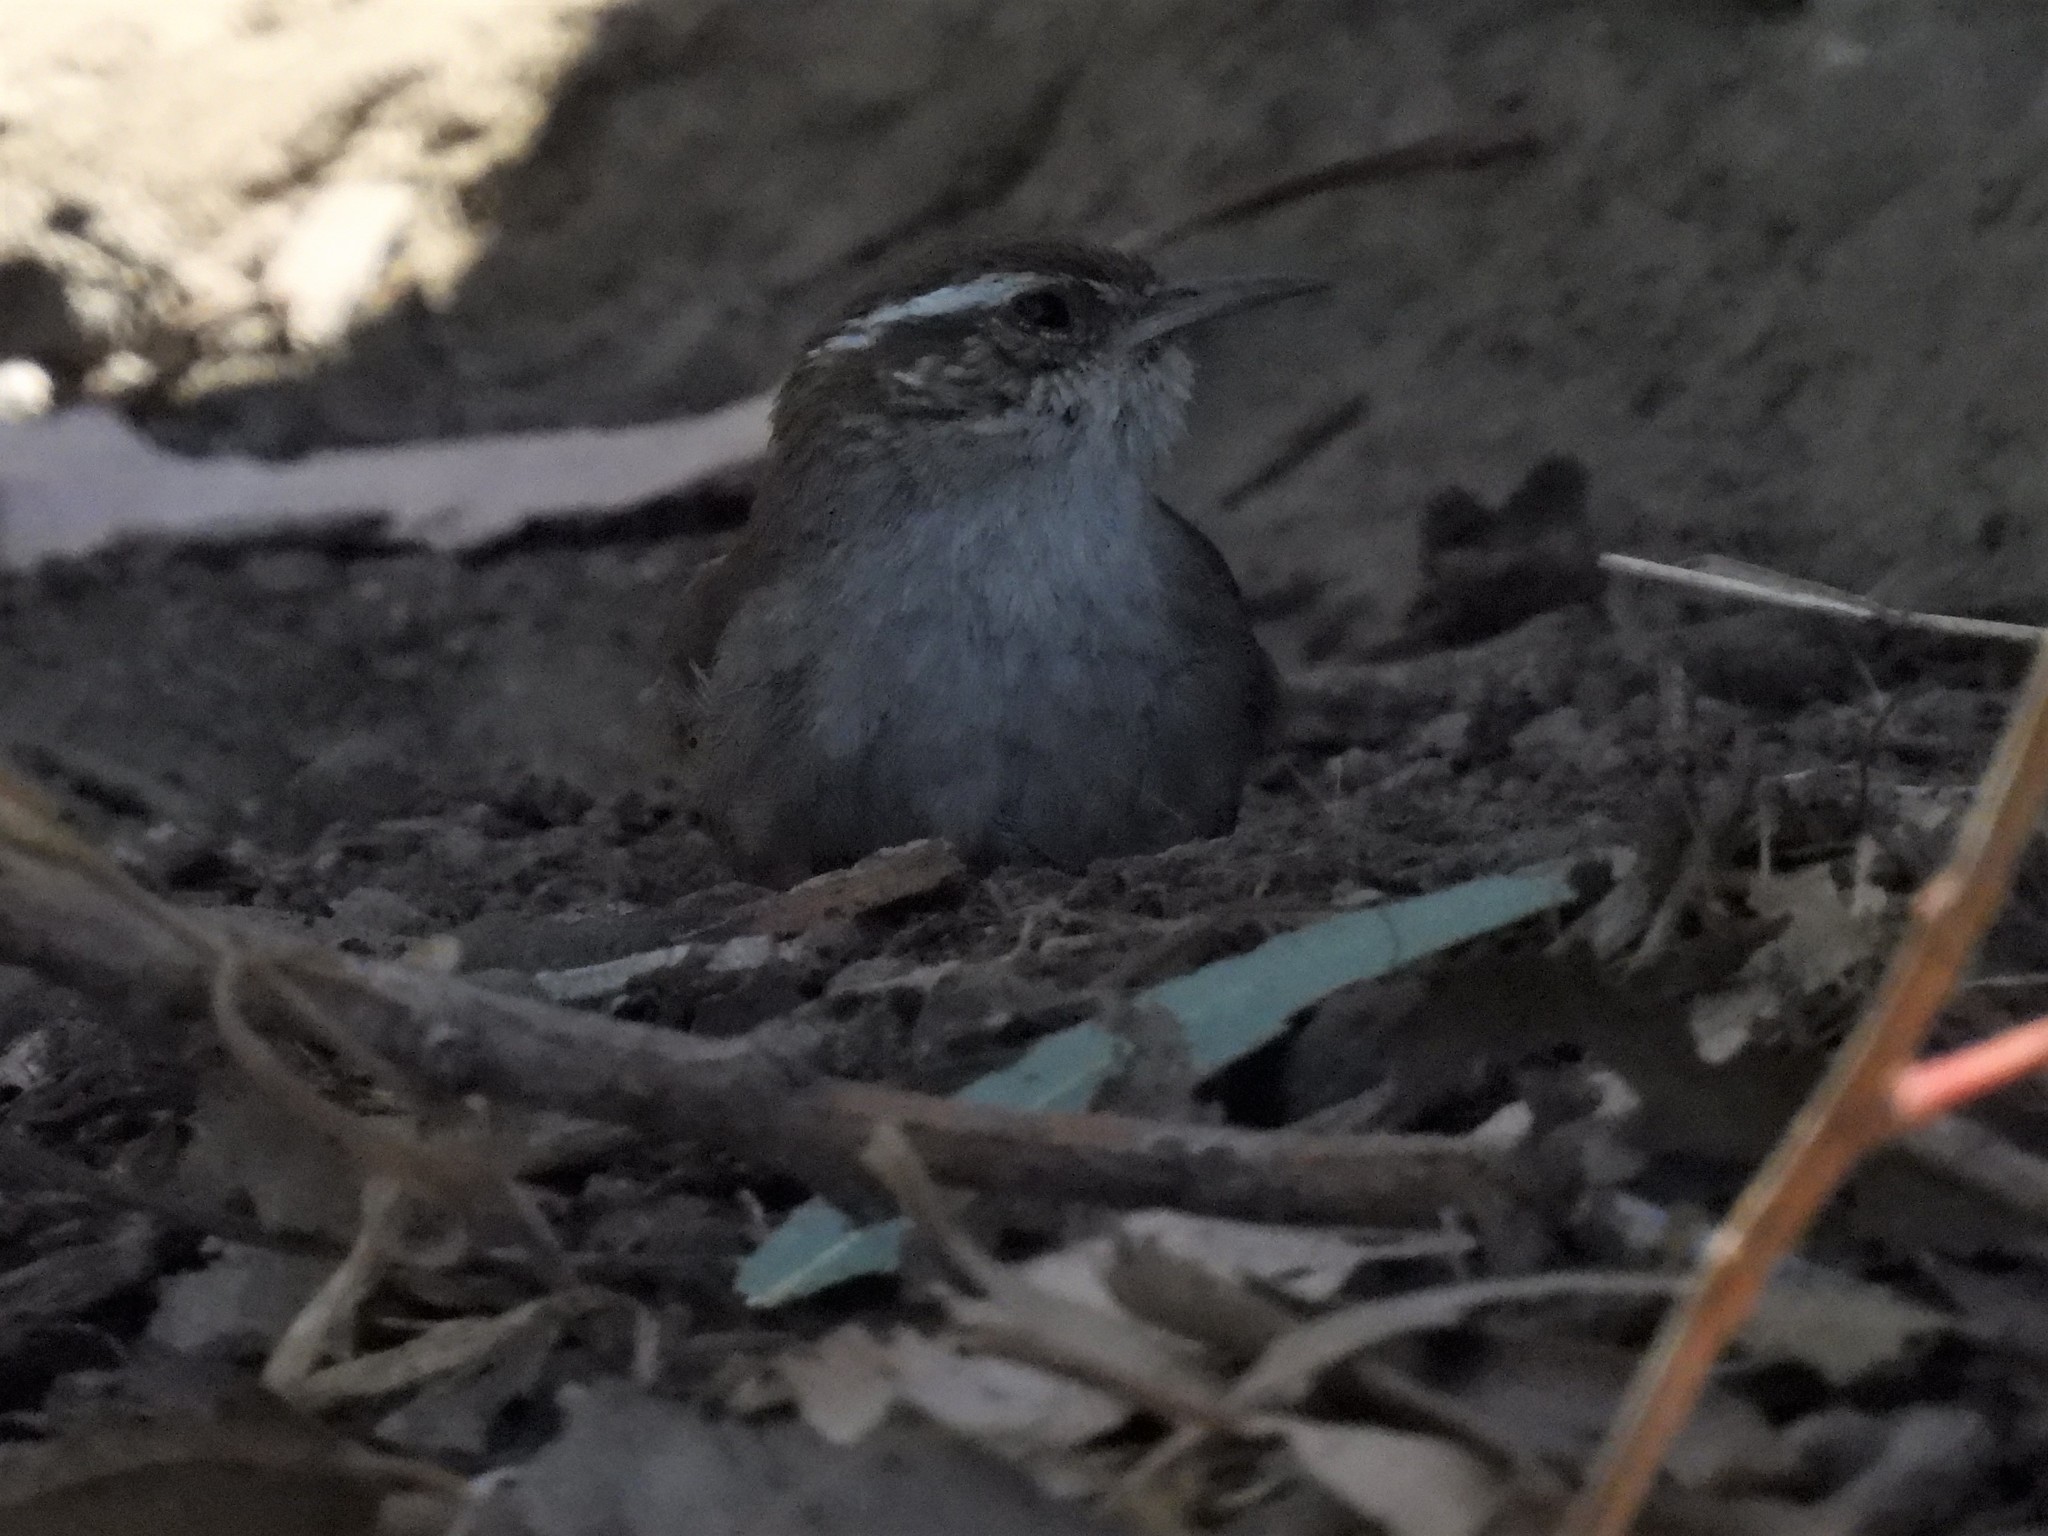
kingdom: Animalia
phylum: Chordata
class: Aves
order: Passeriformes
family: Troglodytidae
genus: Thryomanes
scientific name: Thryomanes bewickii
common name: Bewick's wren
